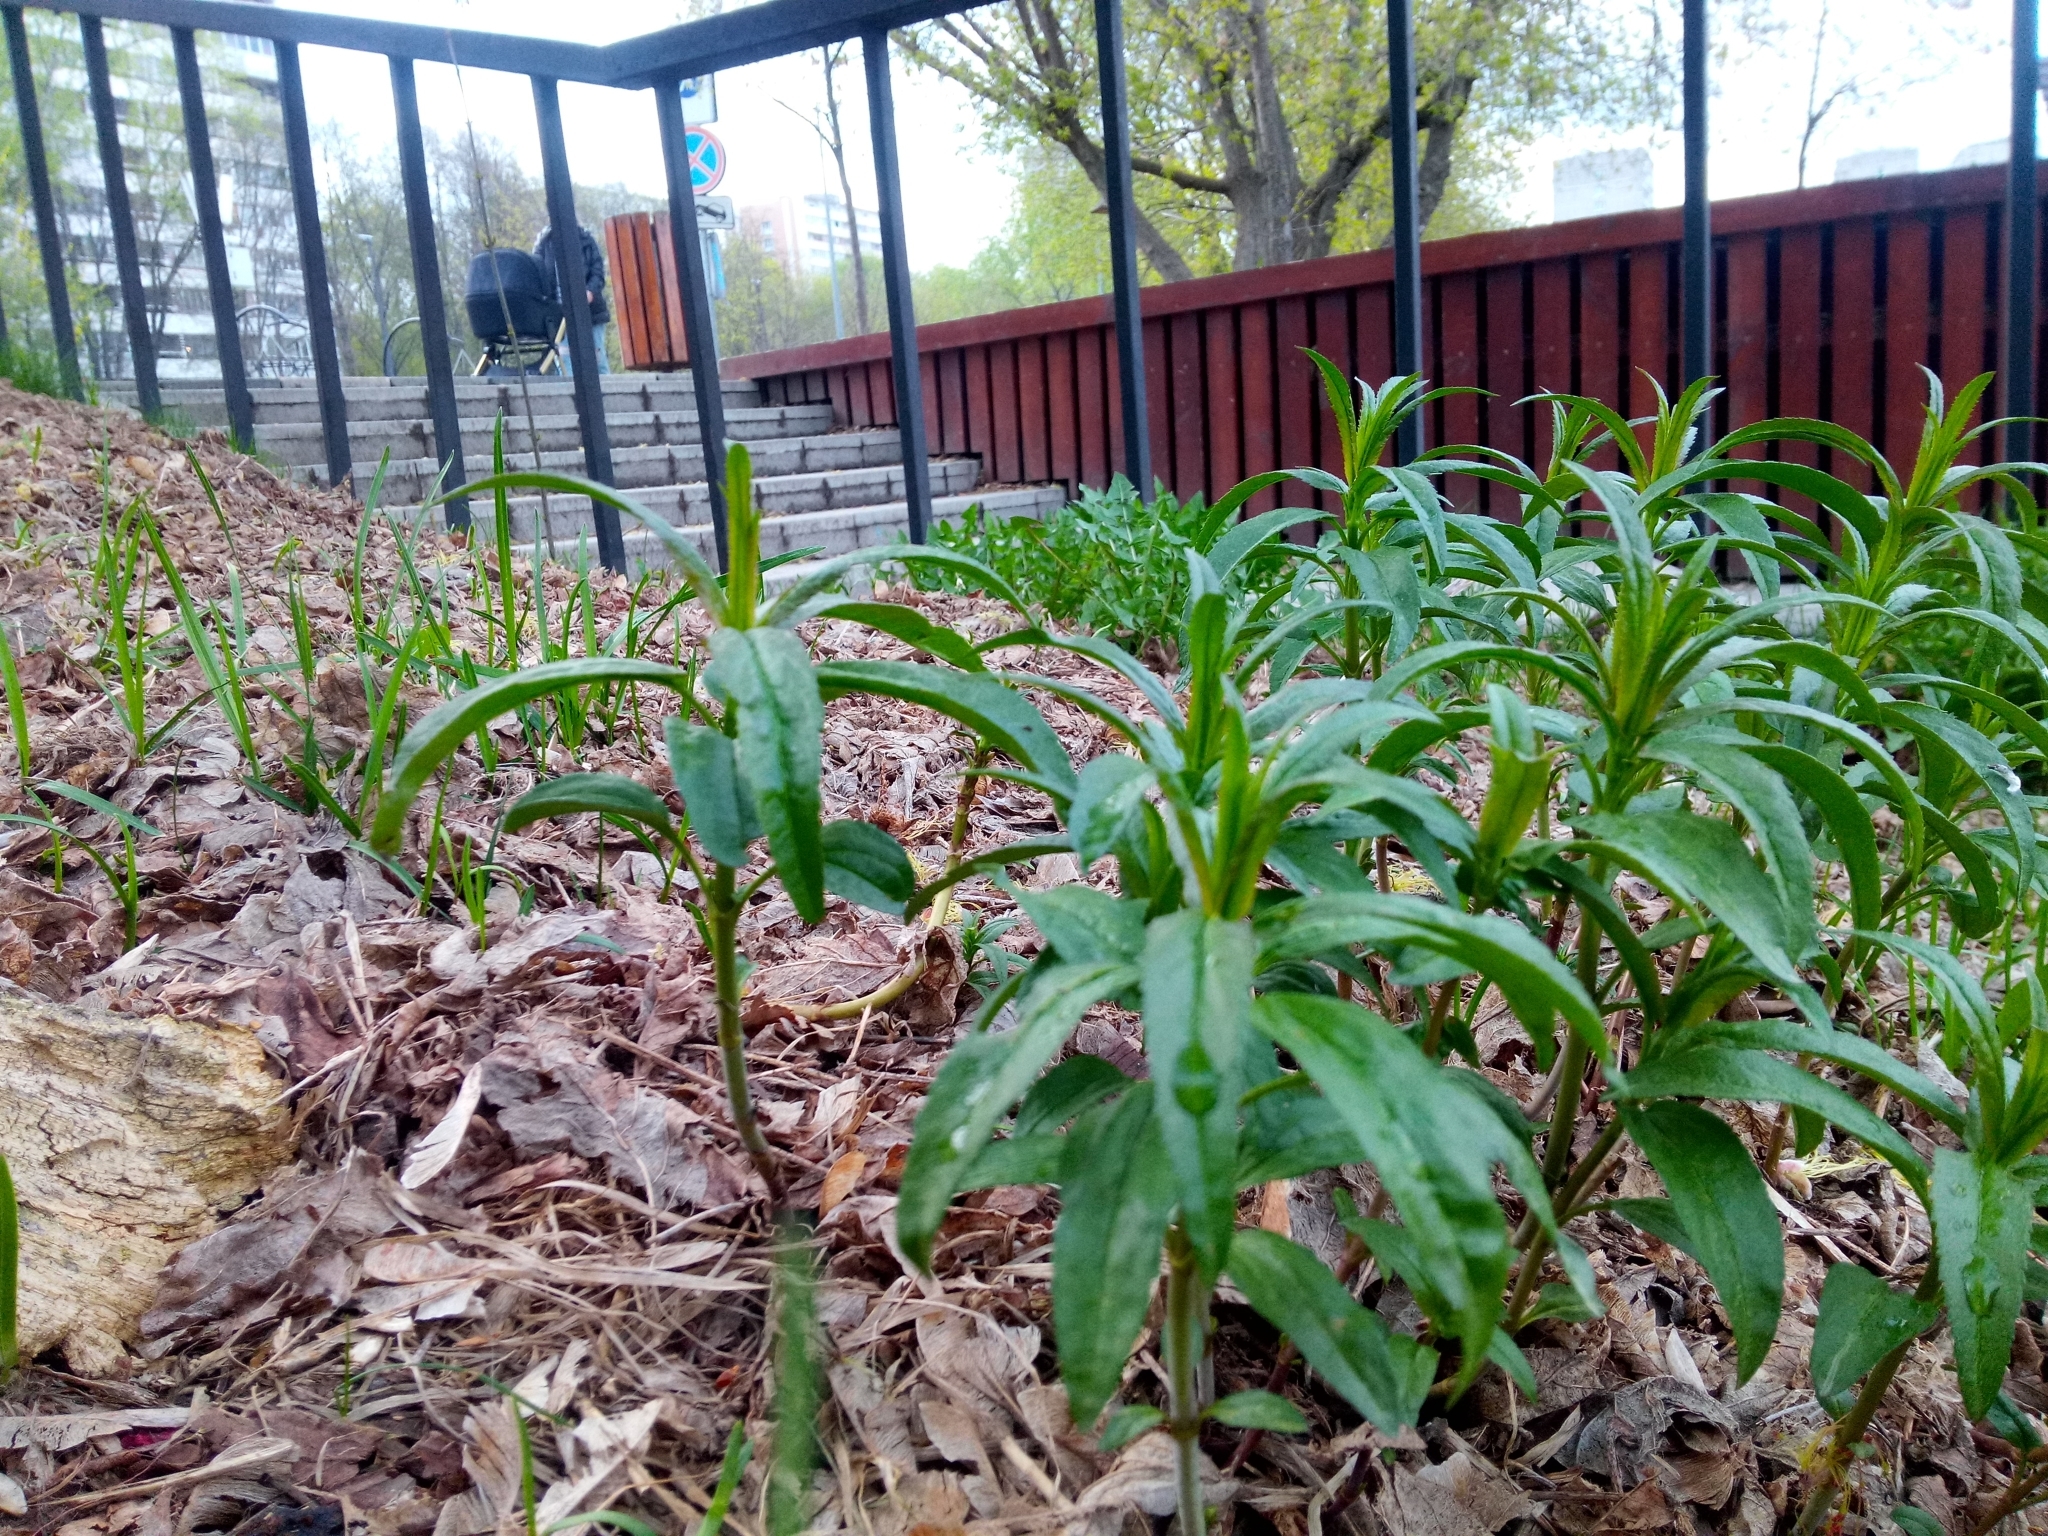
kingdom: Plantae
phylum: Tracheophyta
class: Magnoliopsida
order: Lamiales
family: Plantaginaceae
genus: Veronica
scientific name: Veronica longifolia
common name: Garden speedwell
